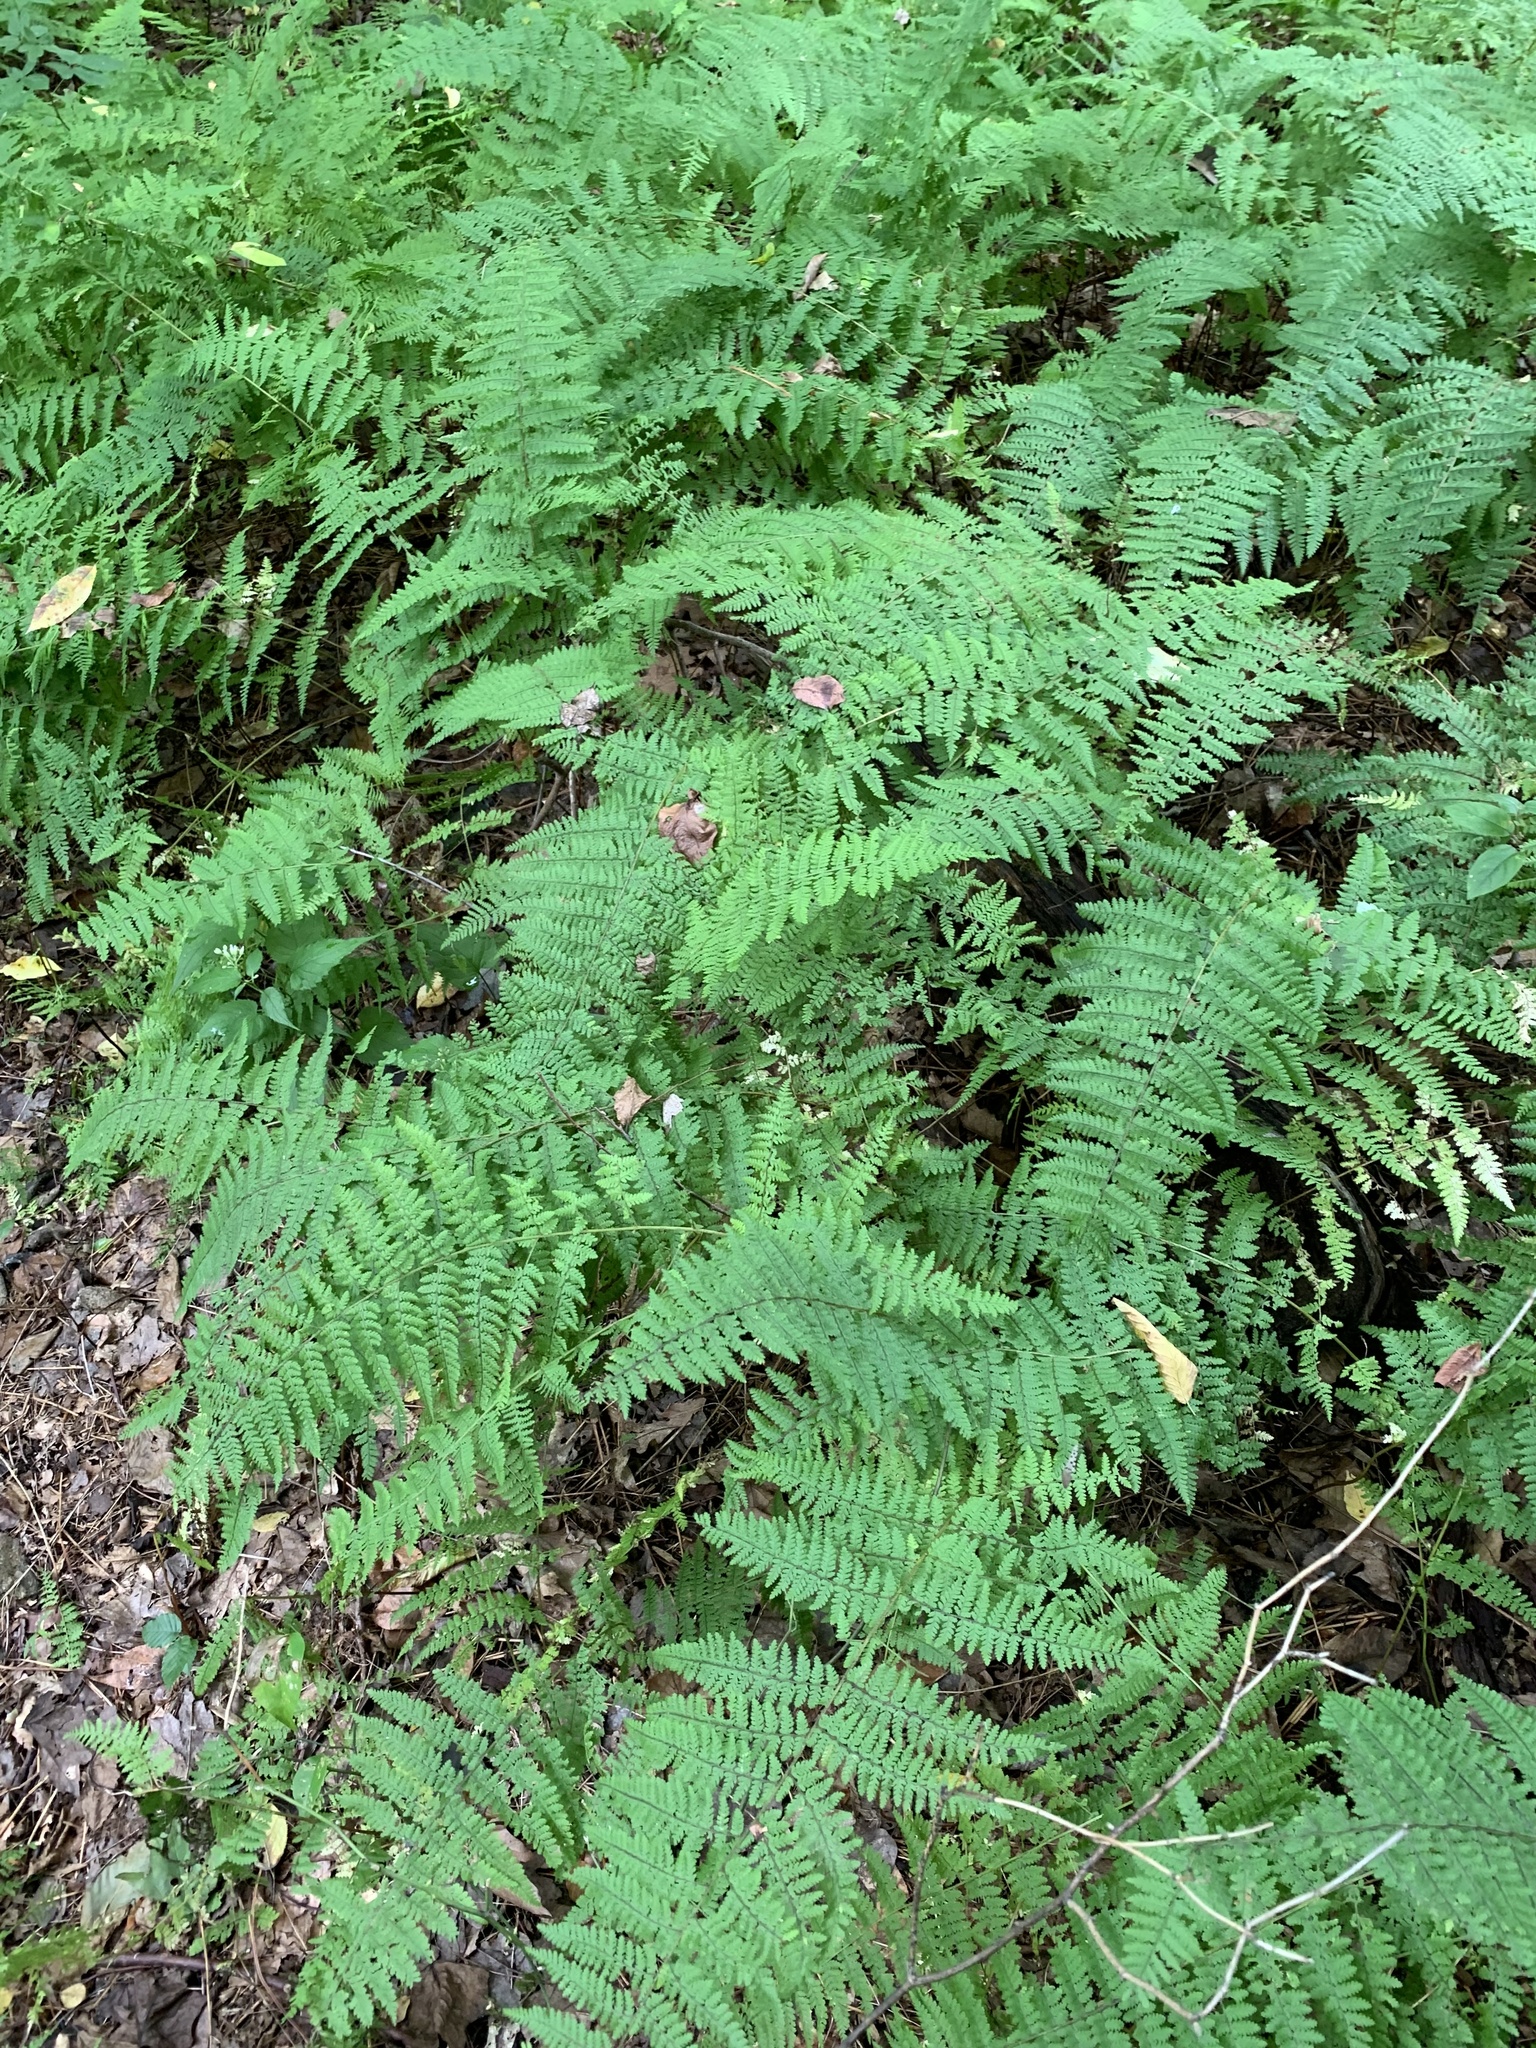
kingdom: Plantae
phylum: Tracheophyta
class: Polypodiopsida
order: Polypodiales
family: Dennstaedtiaceae
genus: Sitobolium
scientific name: Sitobolium punctilobum
